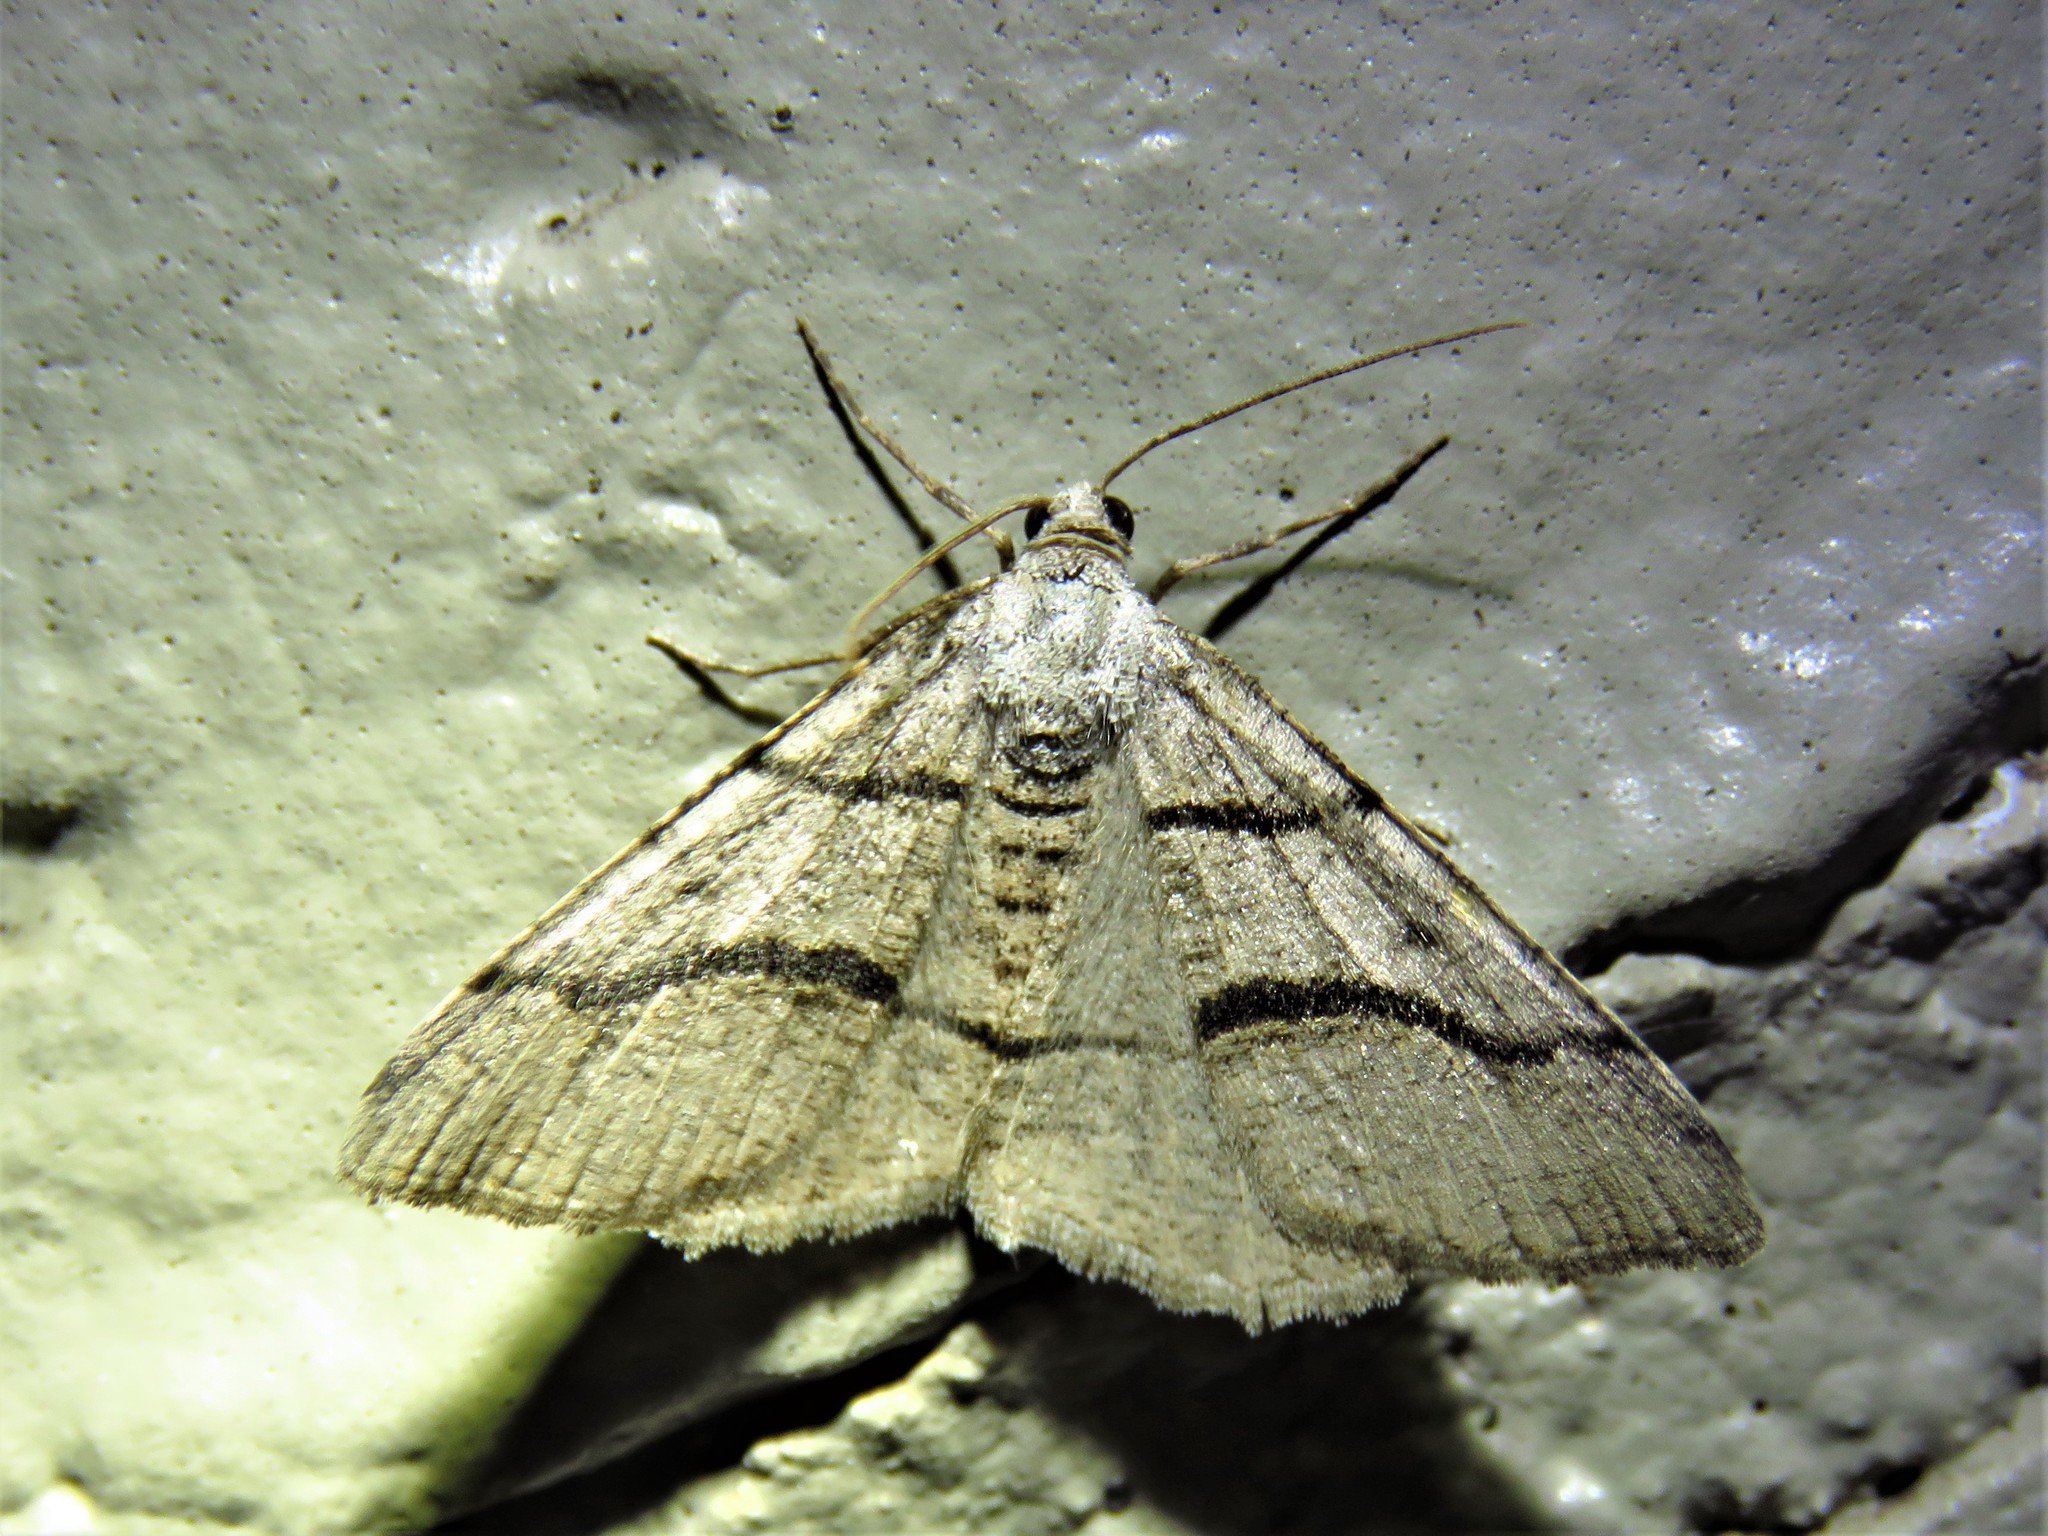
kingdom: Animalia
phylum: Arthropoda
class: Insecta
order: Lepidoptera
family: Geometridae
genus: Digrammia
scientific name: Digrammia continuata
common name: Curve-lined angle
